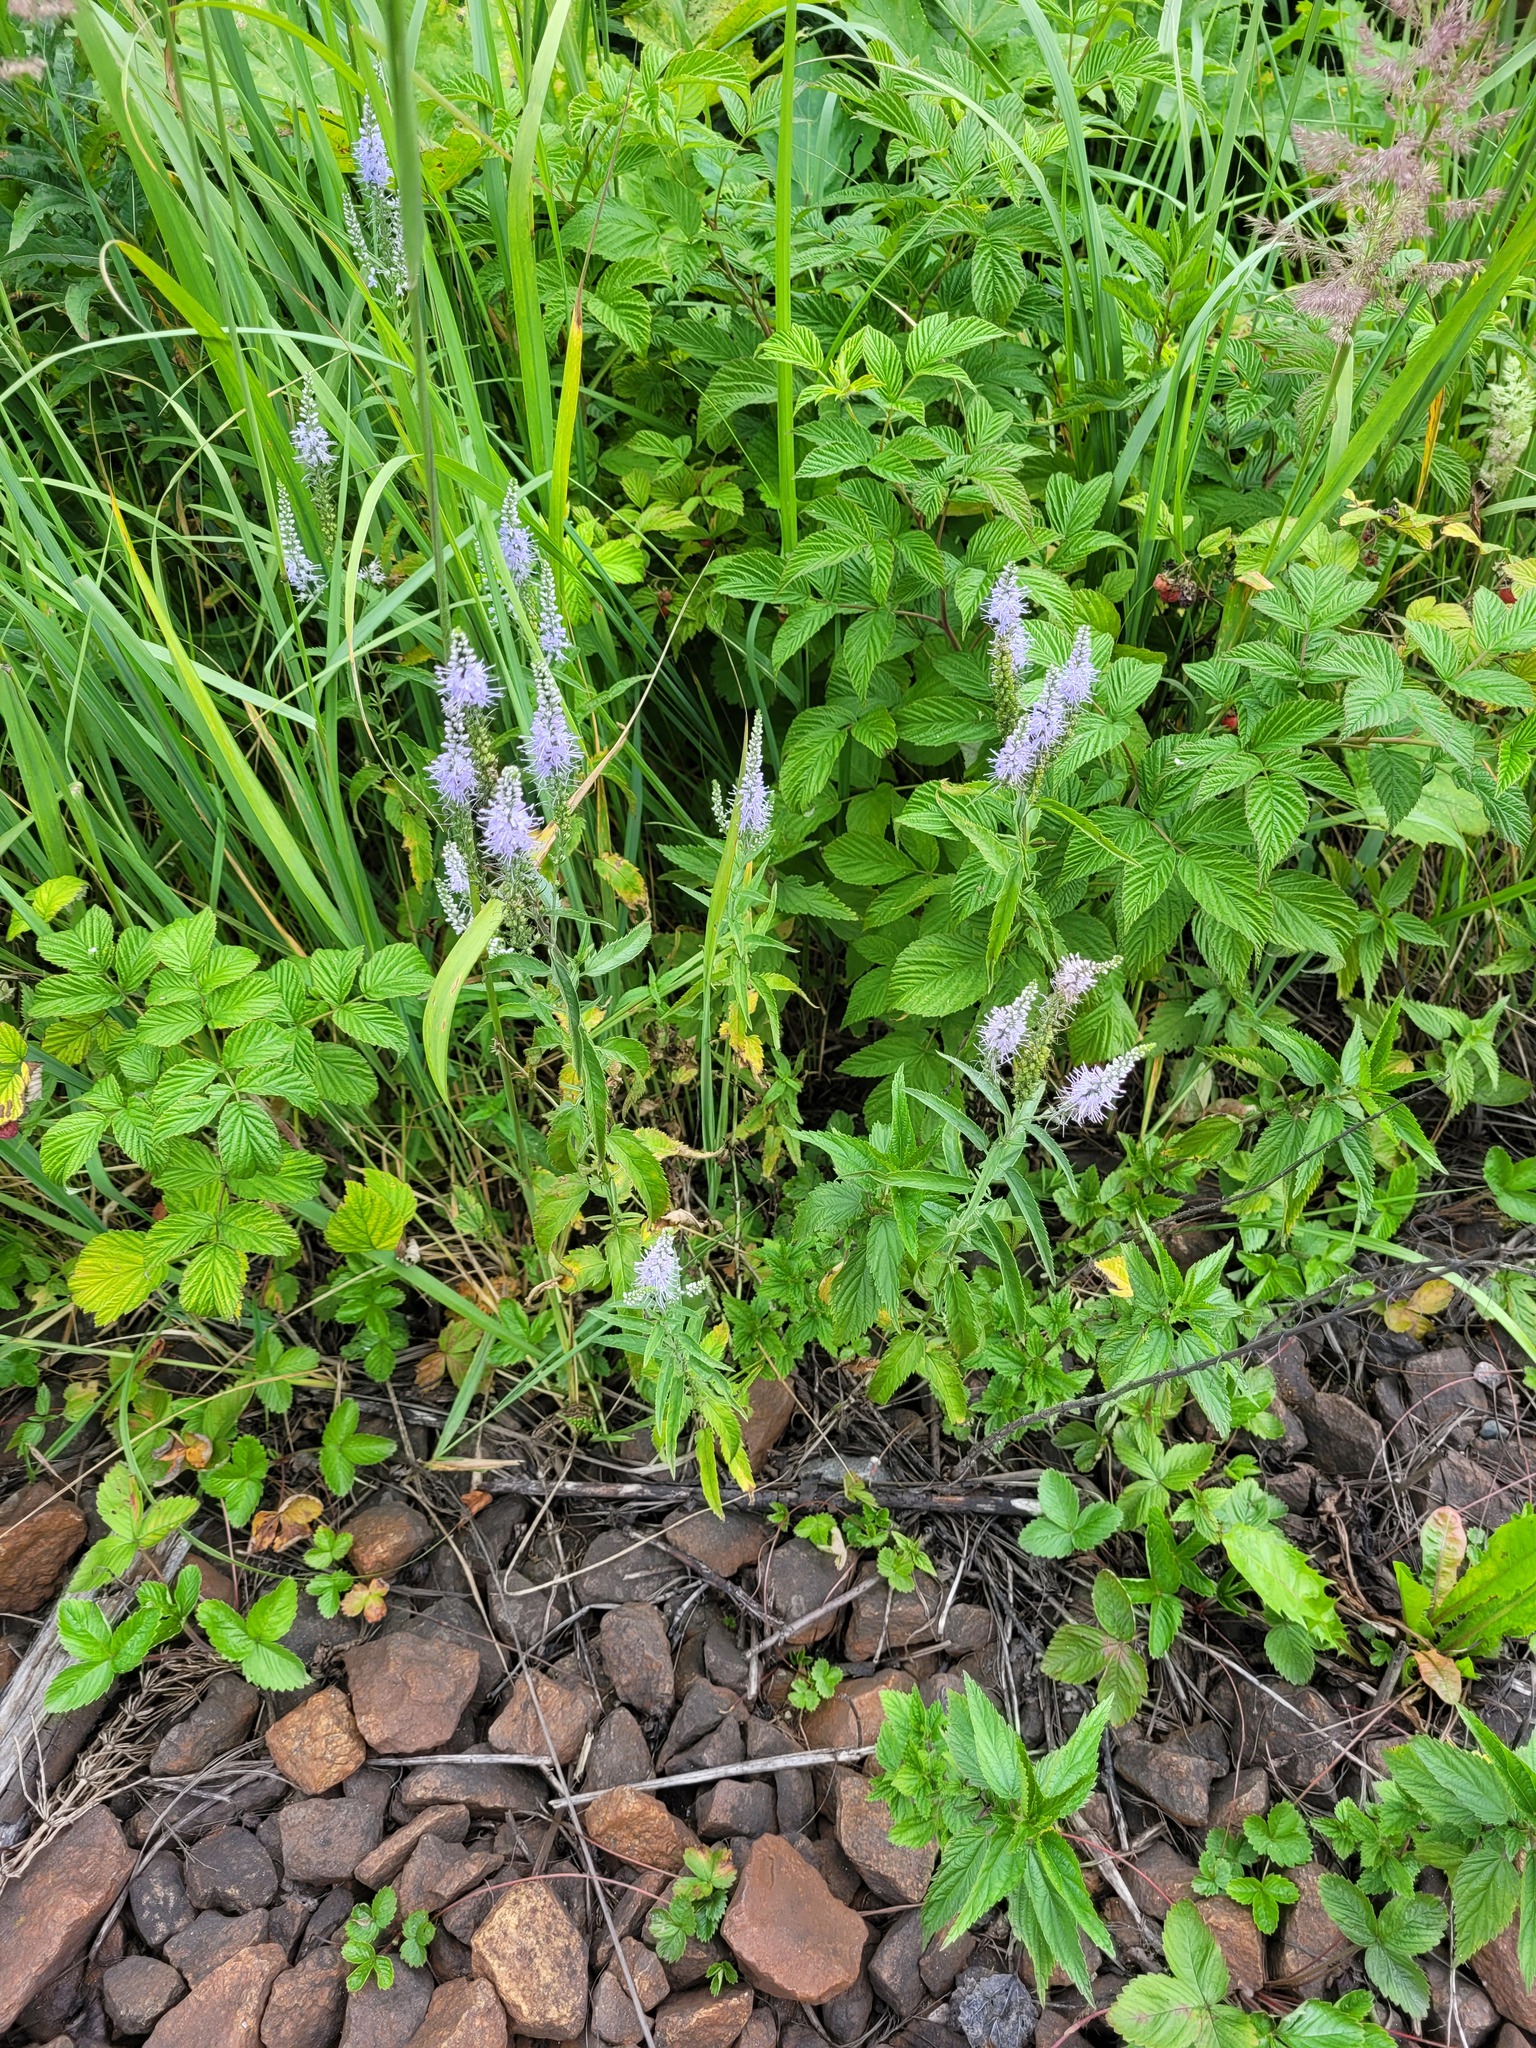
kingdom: Plantae
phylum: Tracheophyta
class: Magnoliopsida
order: Lamiales
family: Plantaginaceae
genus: Veronica
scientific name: Veronica longifolia
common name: Garden speedwell
